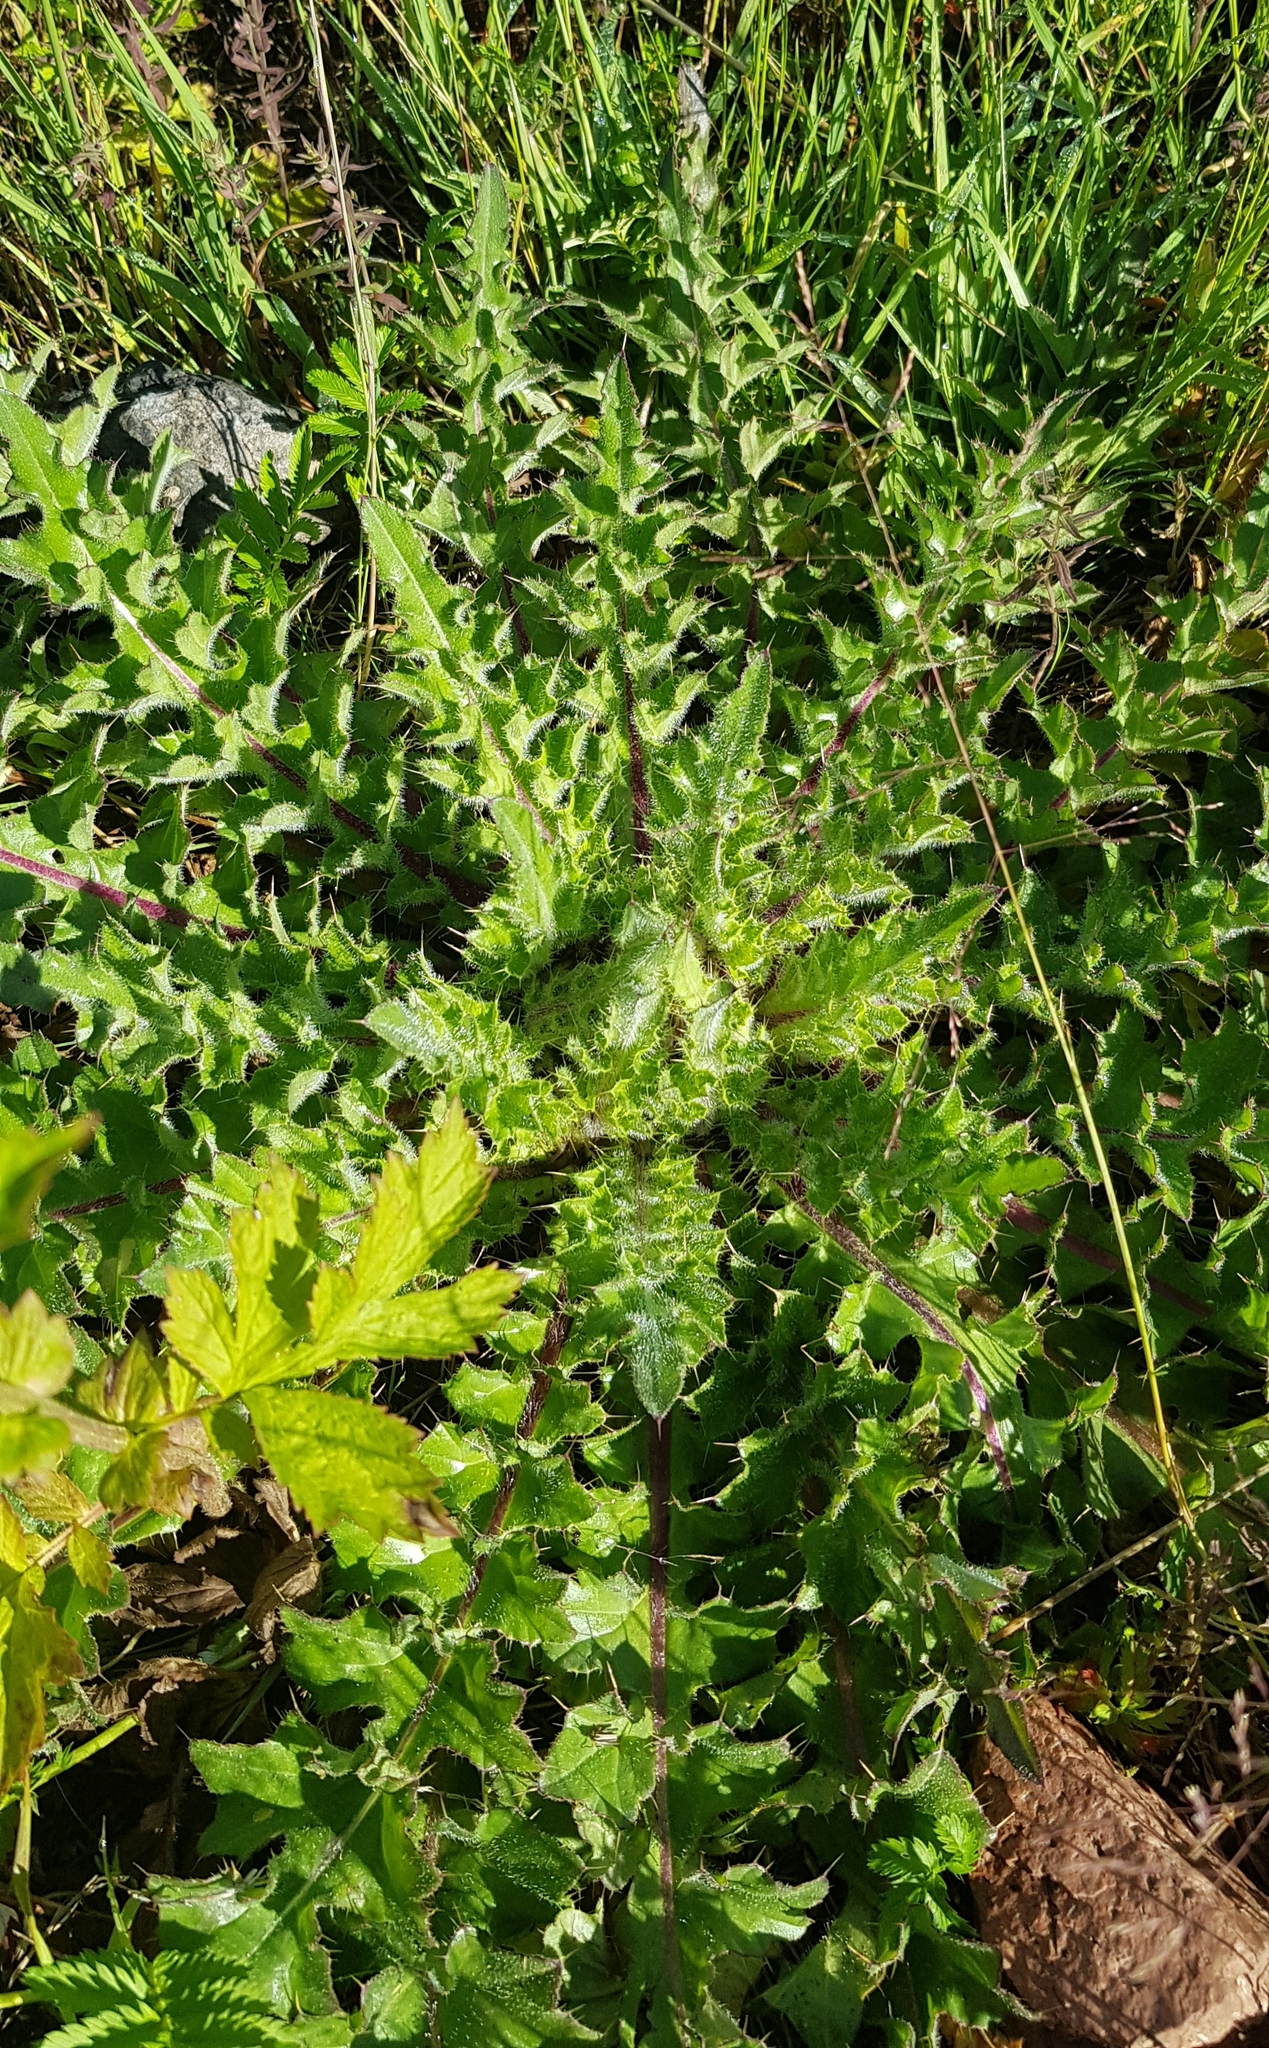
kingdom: Plantae
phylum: Tracheophyta
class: Magnoliopsida
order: Asterales
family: Asteraceae
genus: Cirsium
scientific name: Cirsium esculentum
